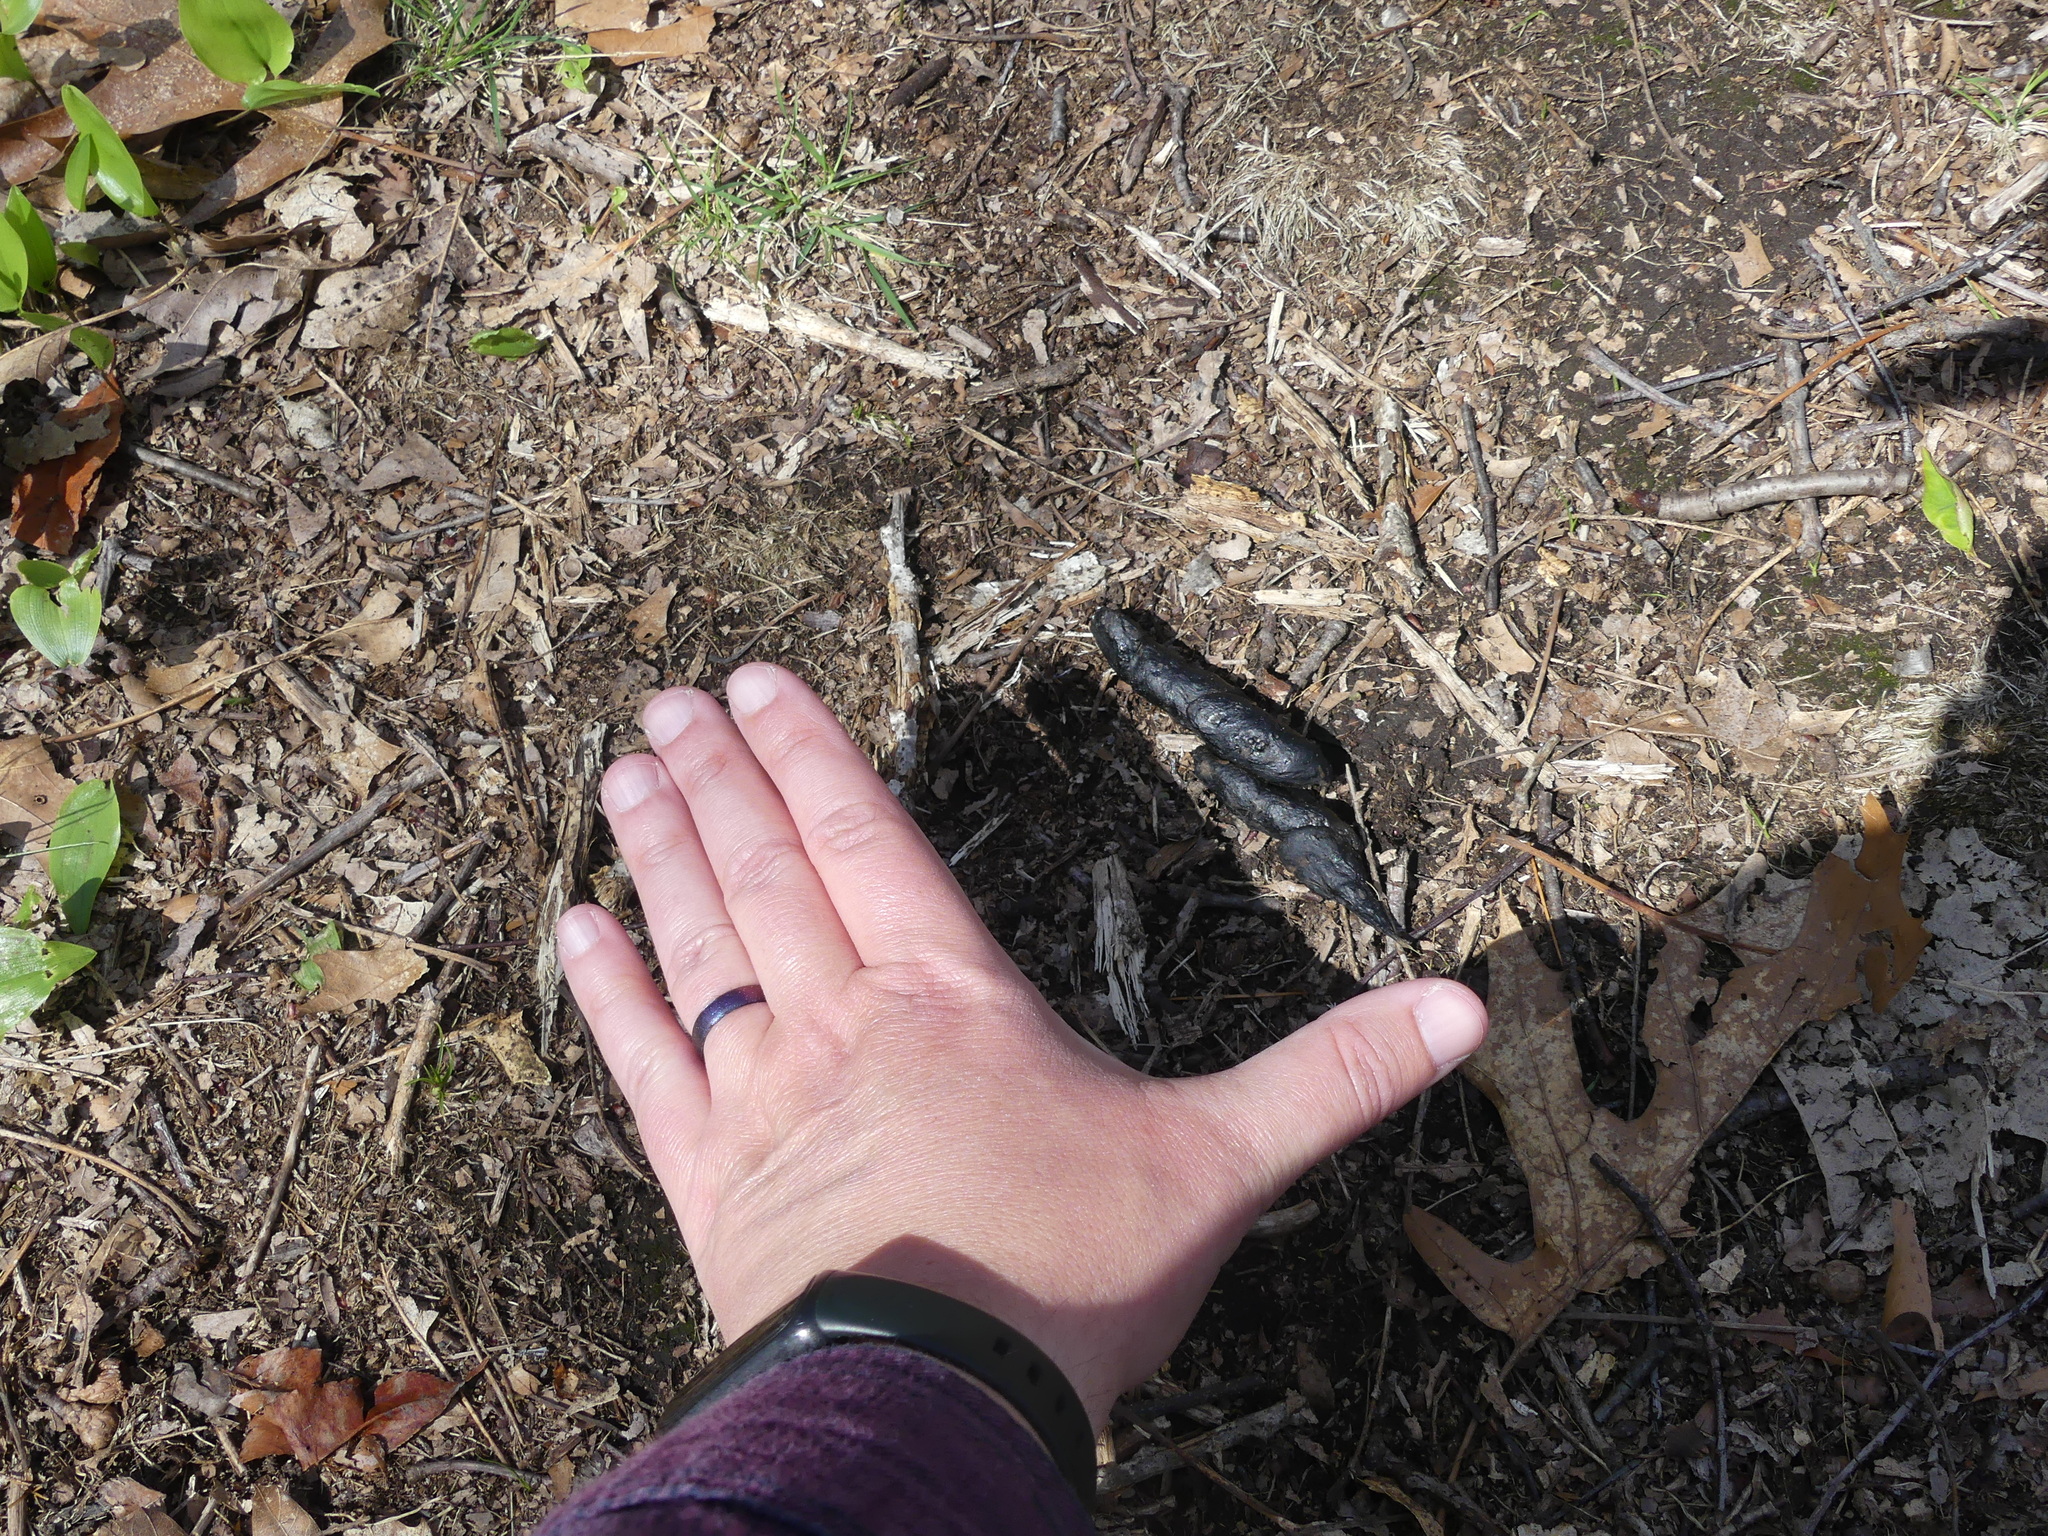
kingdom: Animalia
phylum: Chordata
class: Mammalia
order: Carnivora
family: Canidae
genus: Vulpes
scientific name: Vulpes vulpes
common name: Red fox
